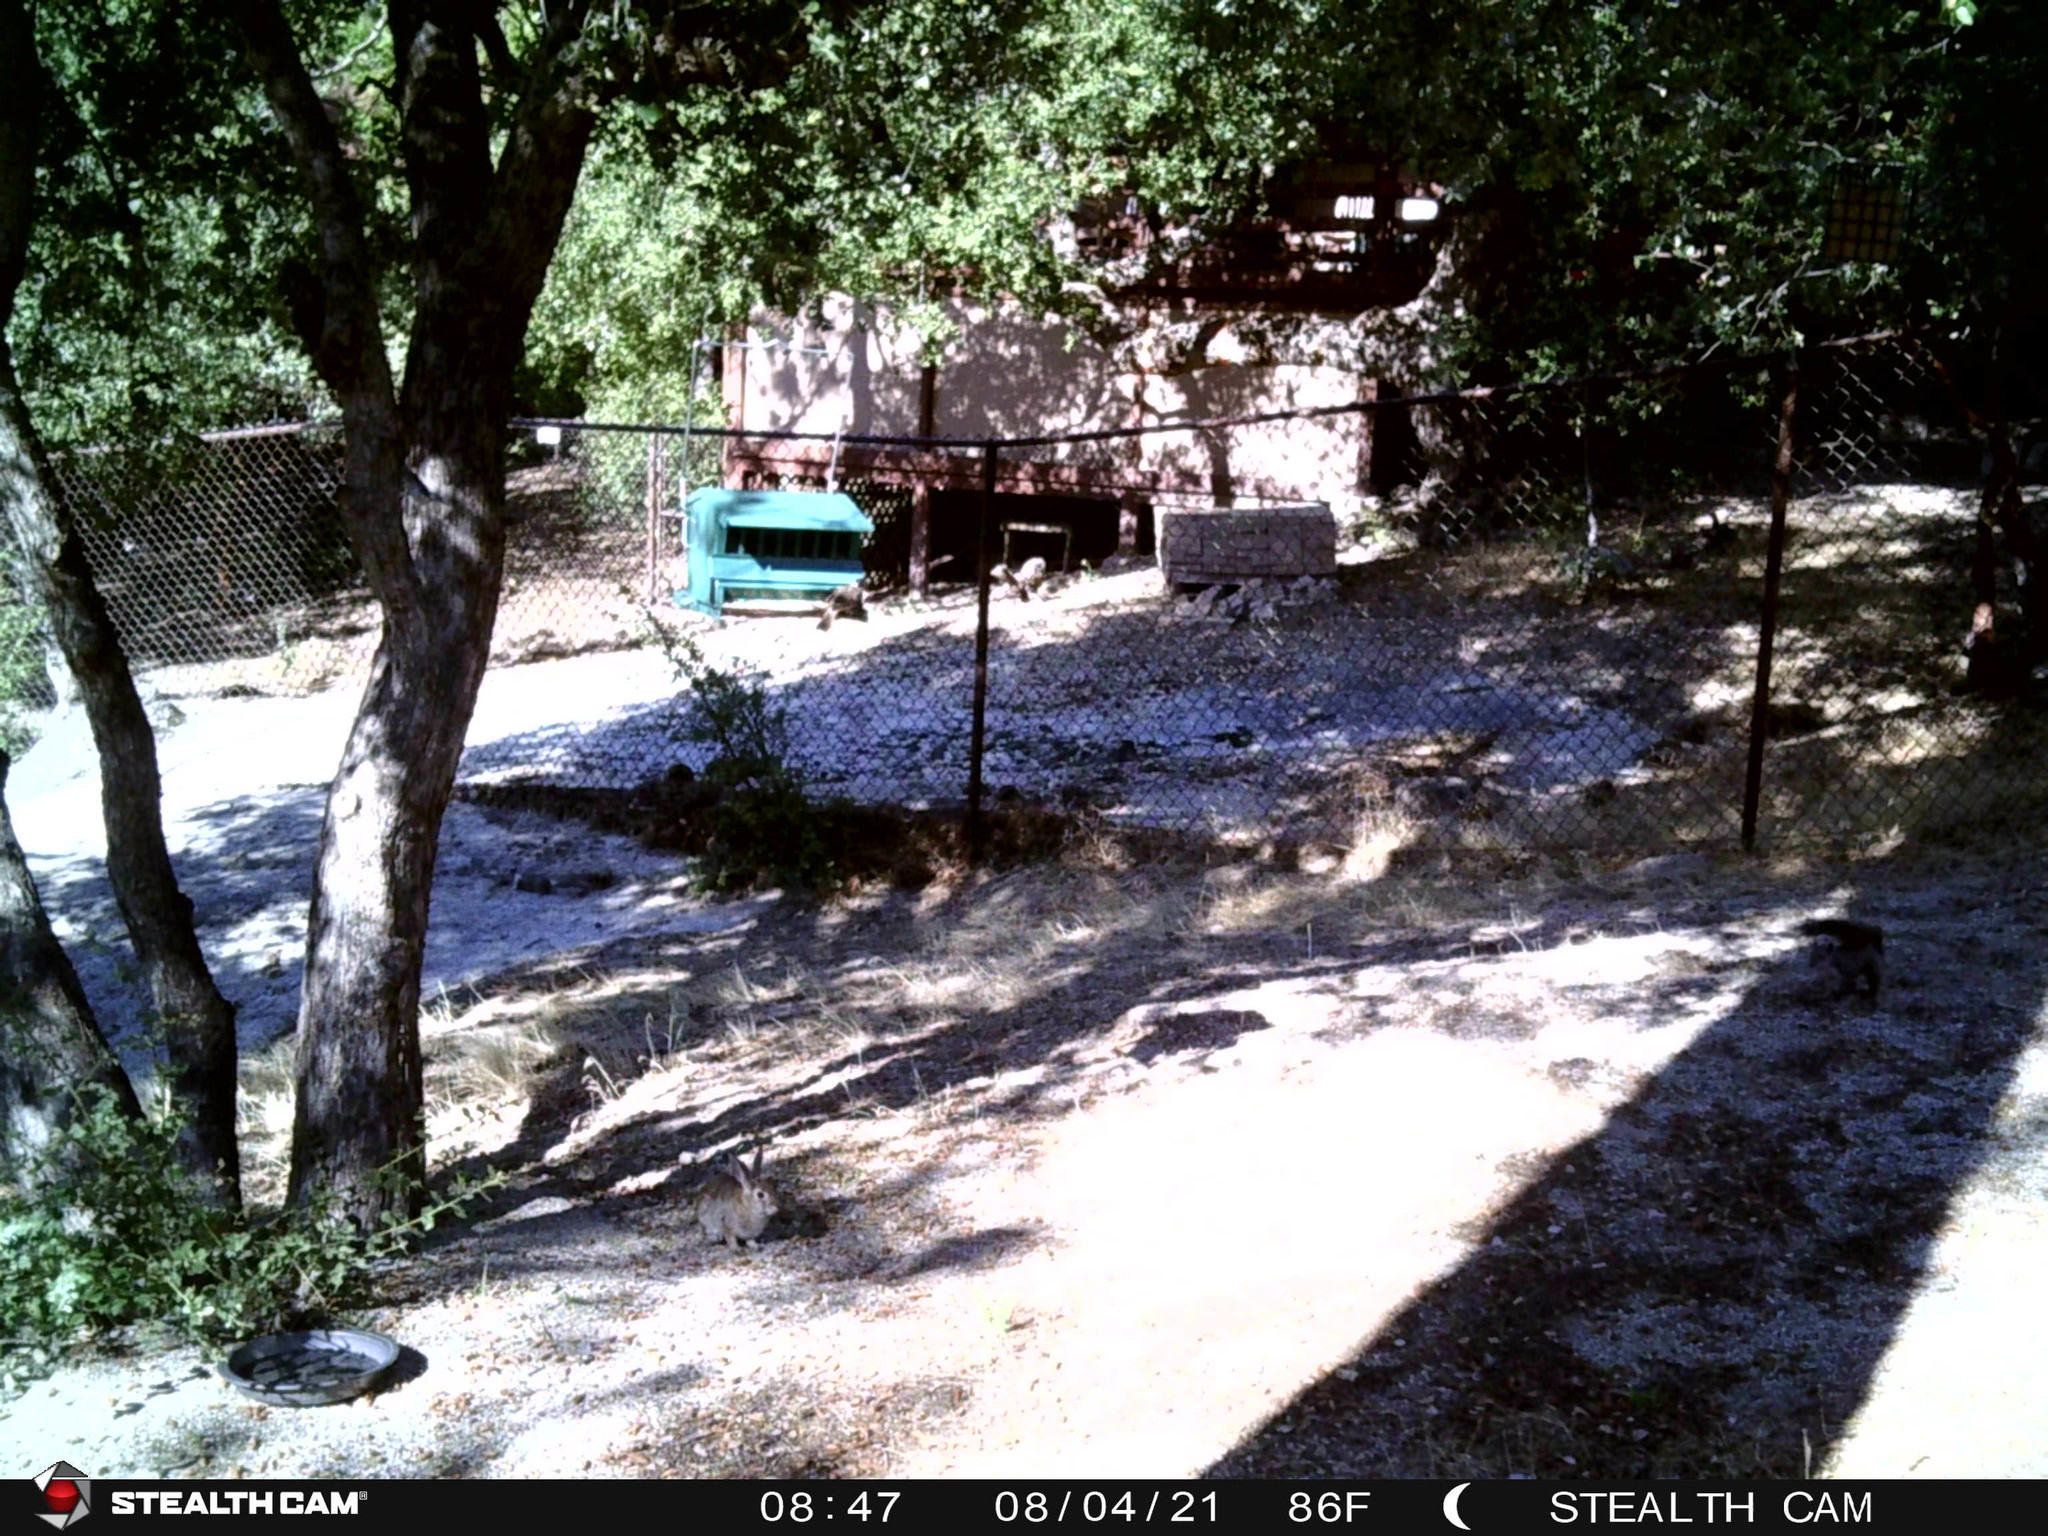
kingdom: Animalia
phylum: Chordata
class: Mammalia
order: Rodentia
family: Sciuridae
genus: Sciurus
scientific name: Sciurus griseus
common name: Western gray squirrel
